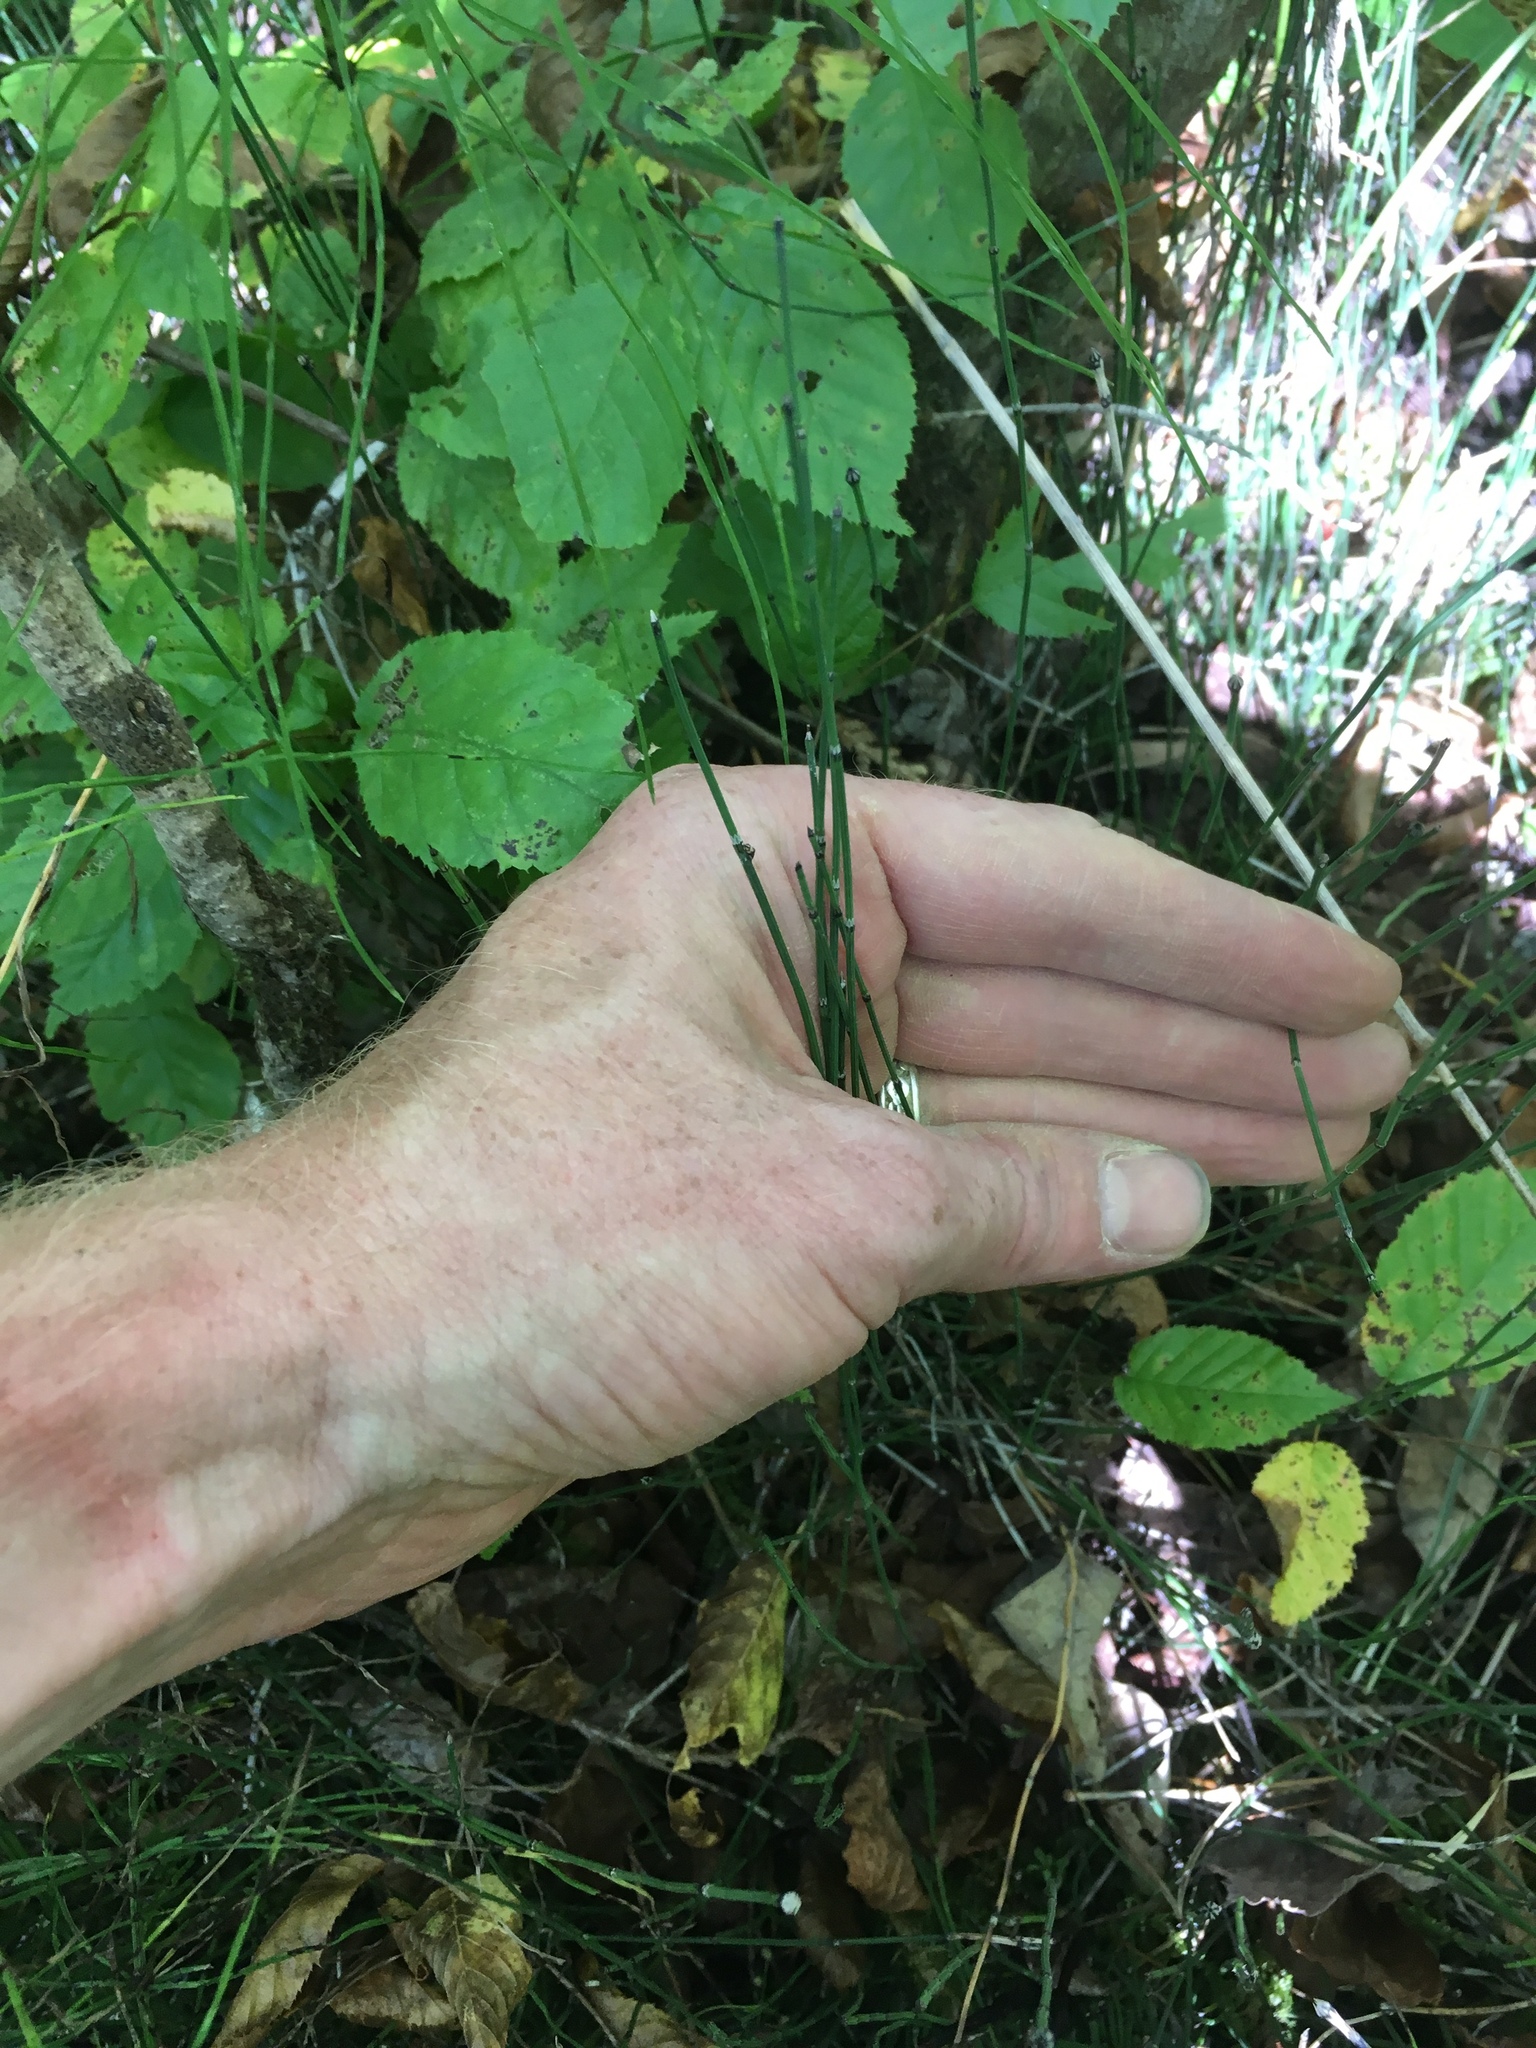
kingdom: Plantae
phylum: Tracheophyta
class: Polypodiopsida
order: Equisetales
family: Equisetaceae
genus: Equisetum
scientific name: Equisetum variegatum
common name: Variegated horsetail
